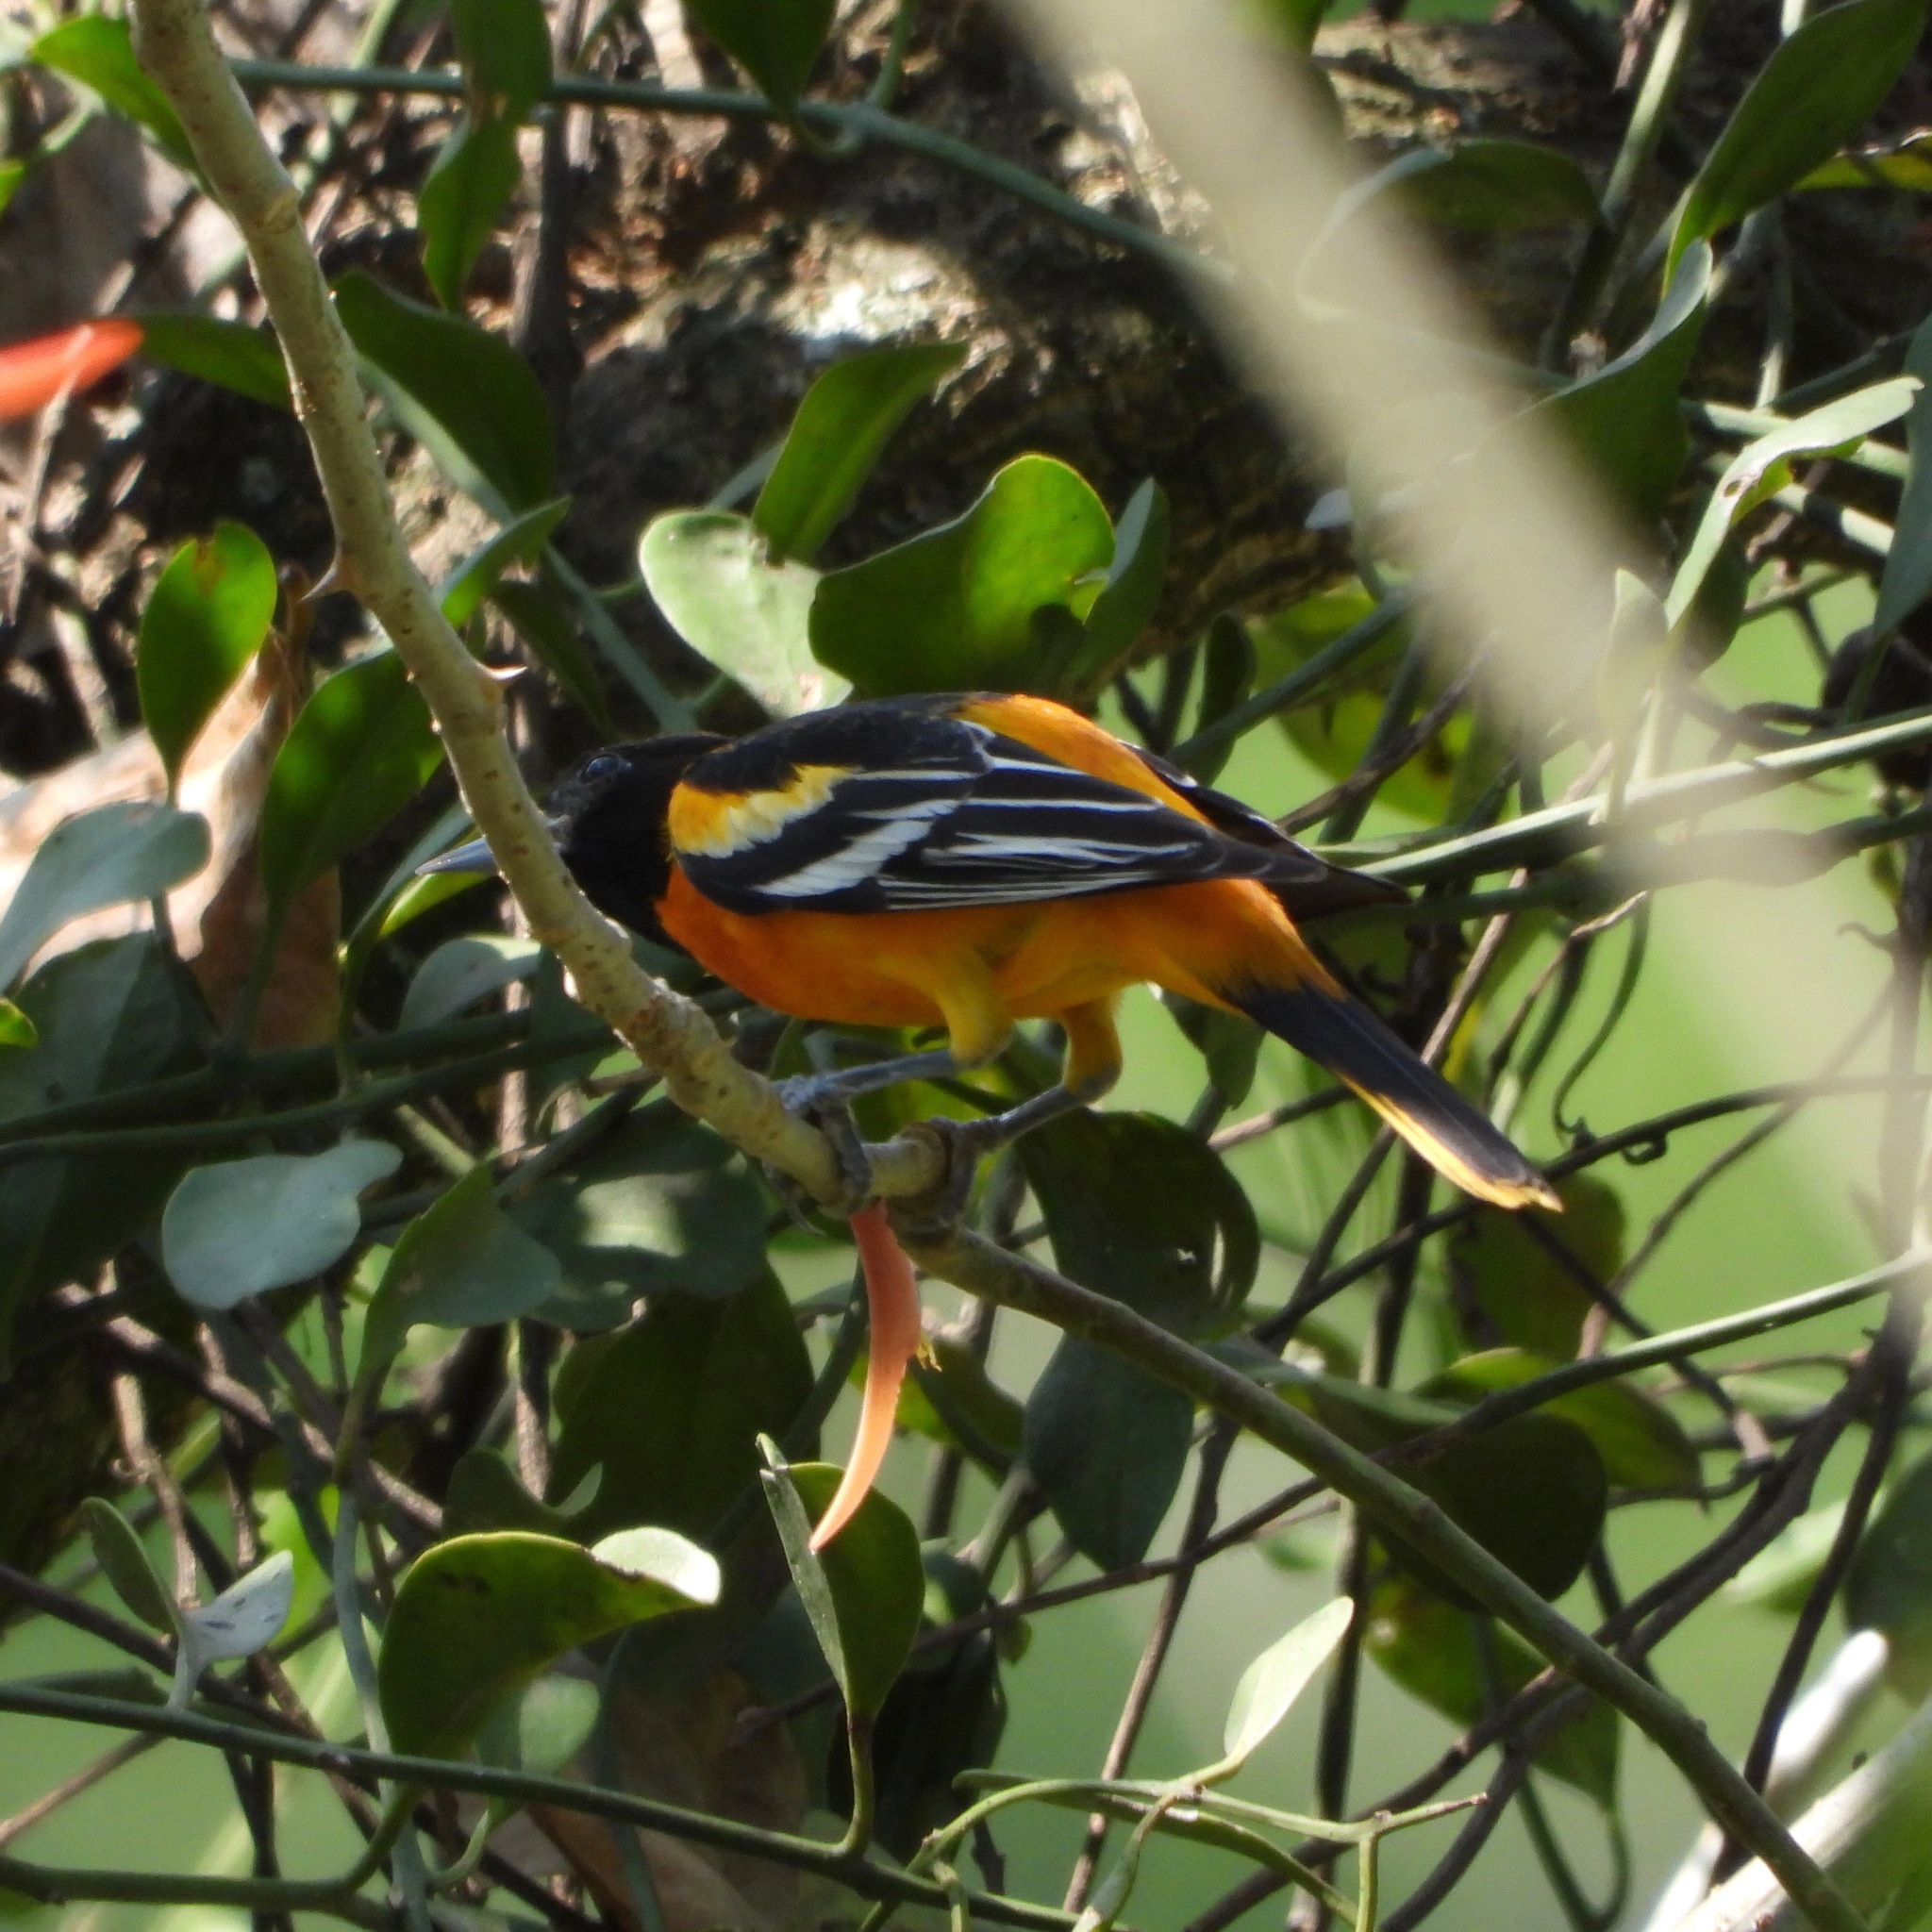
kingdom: Animalia
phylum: Chordata
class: Aves
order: Passeriformes
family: Icteridae
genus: Icterus
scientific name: Icterus galbula
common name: Baltimore oriole
